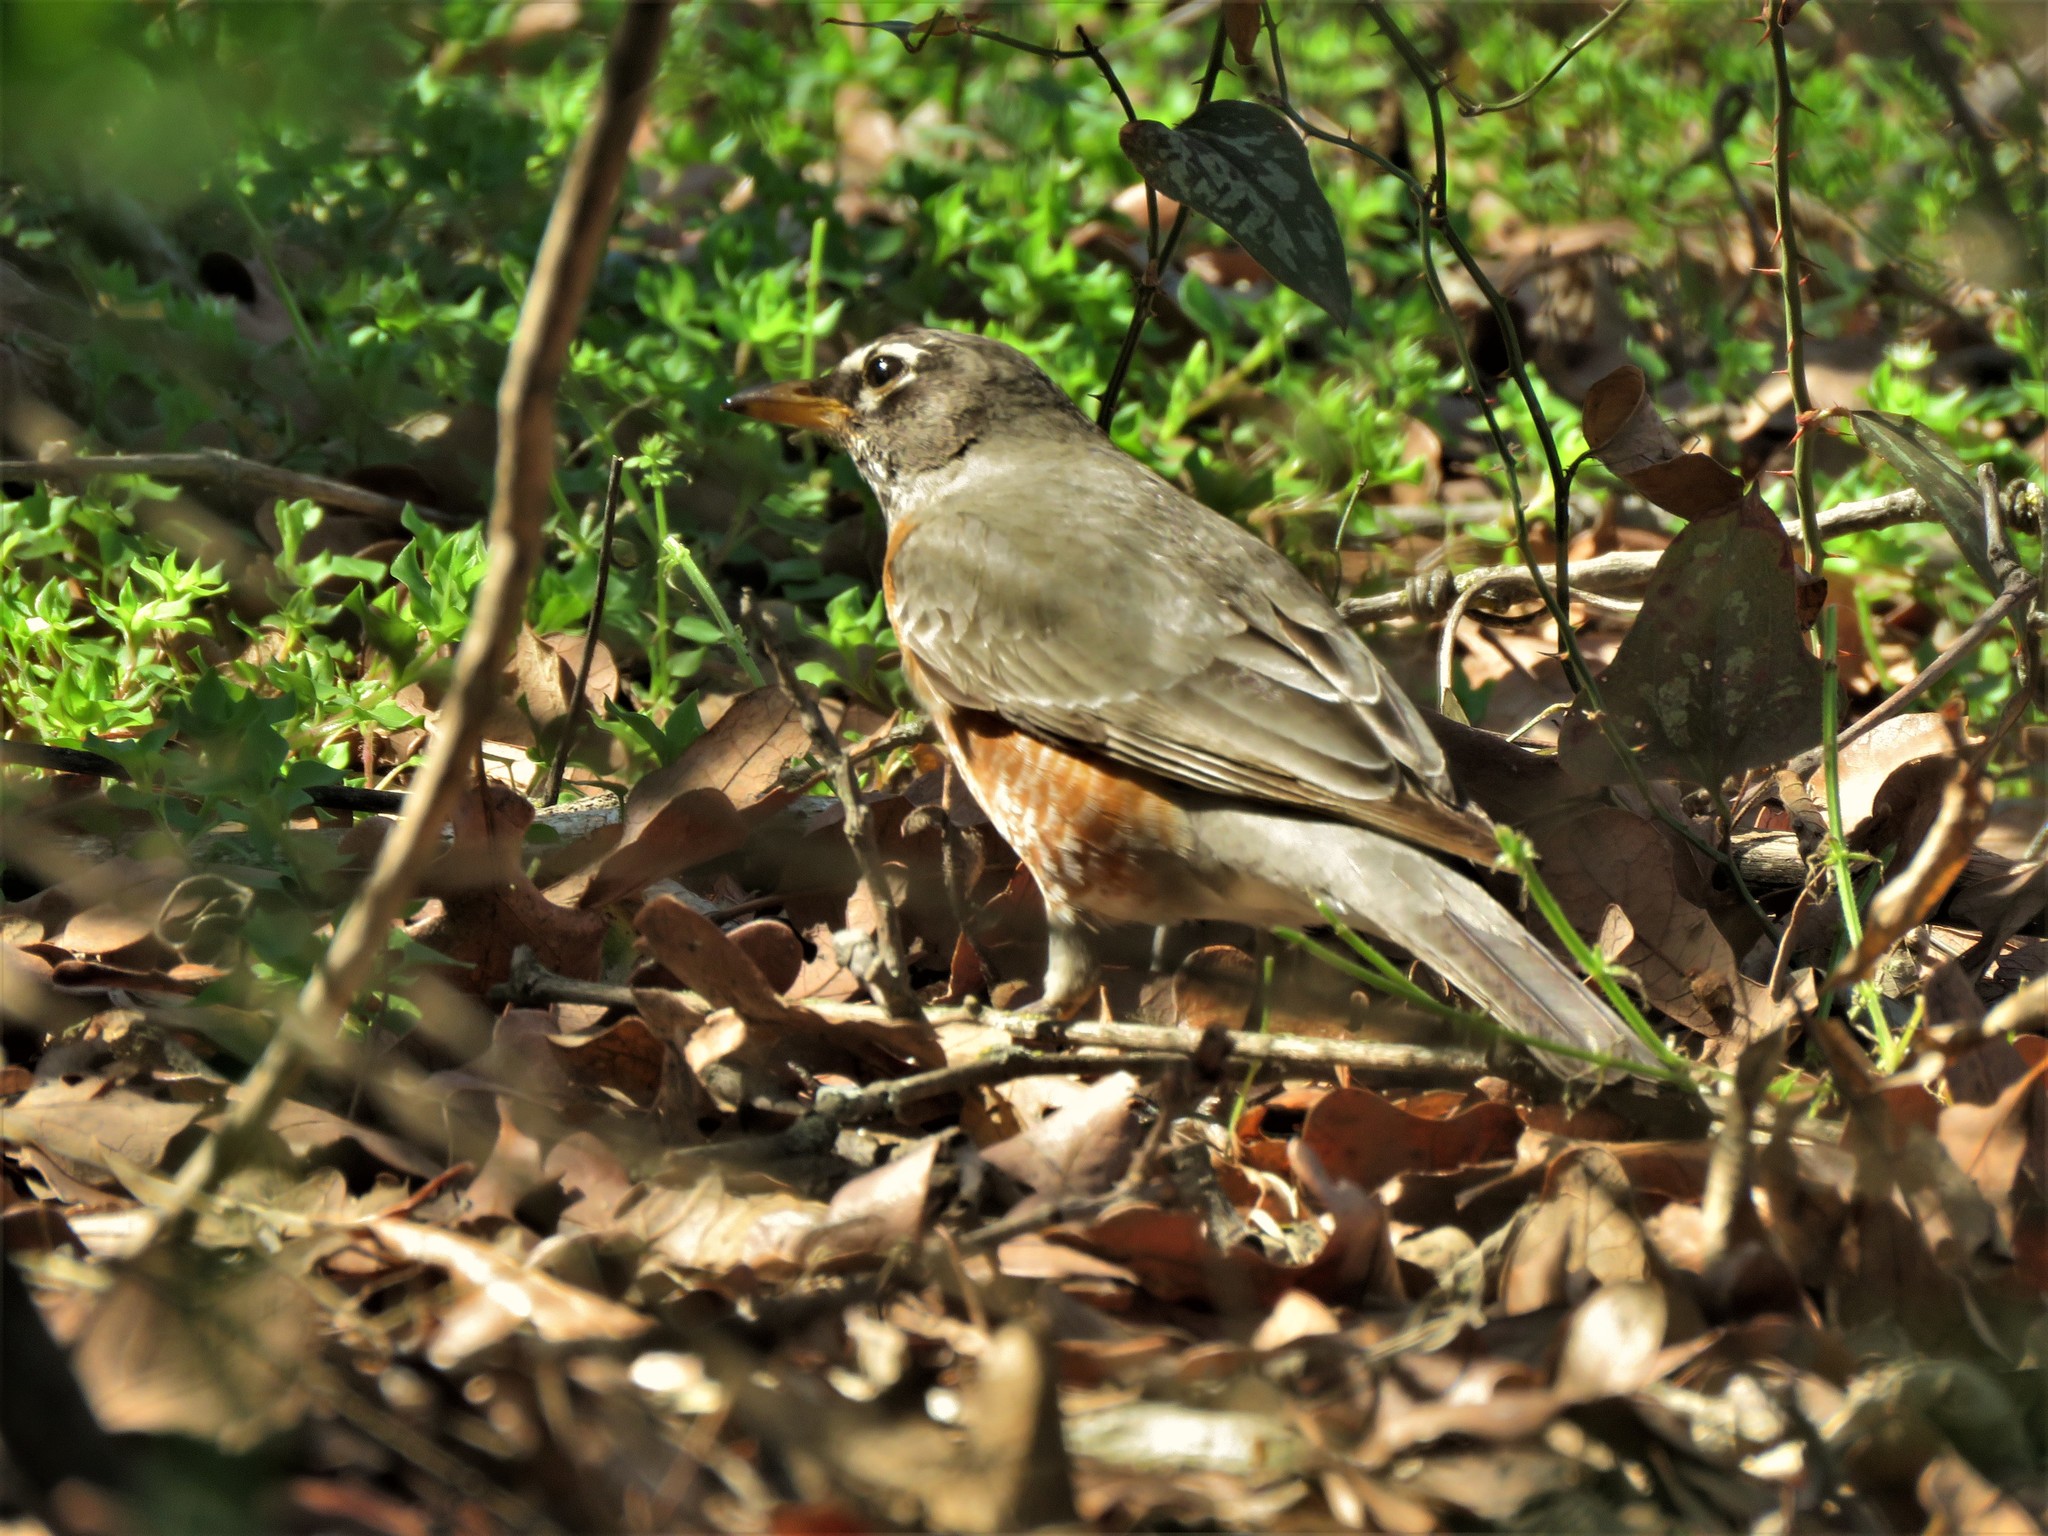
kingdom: Animalia
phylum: Chordata
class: Aves
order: Passeriformes
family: Turdidae
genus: Turdus
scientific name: Turdus migratorius
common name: American robin
